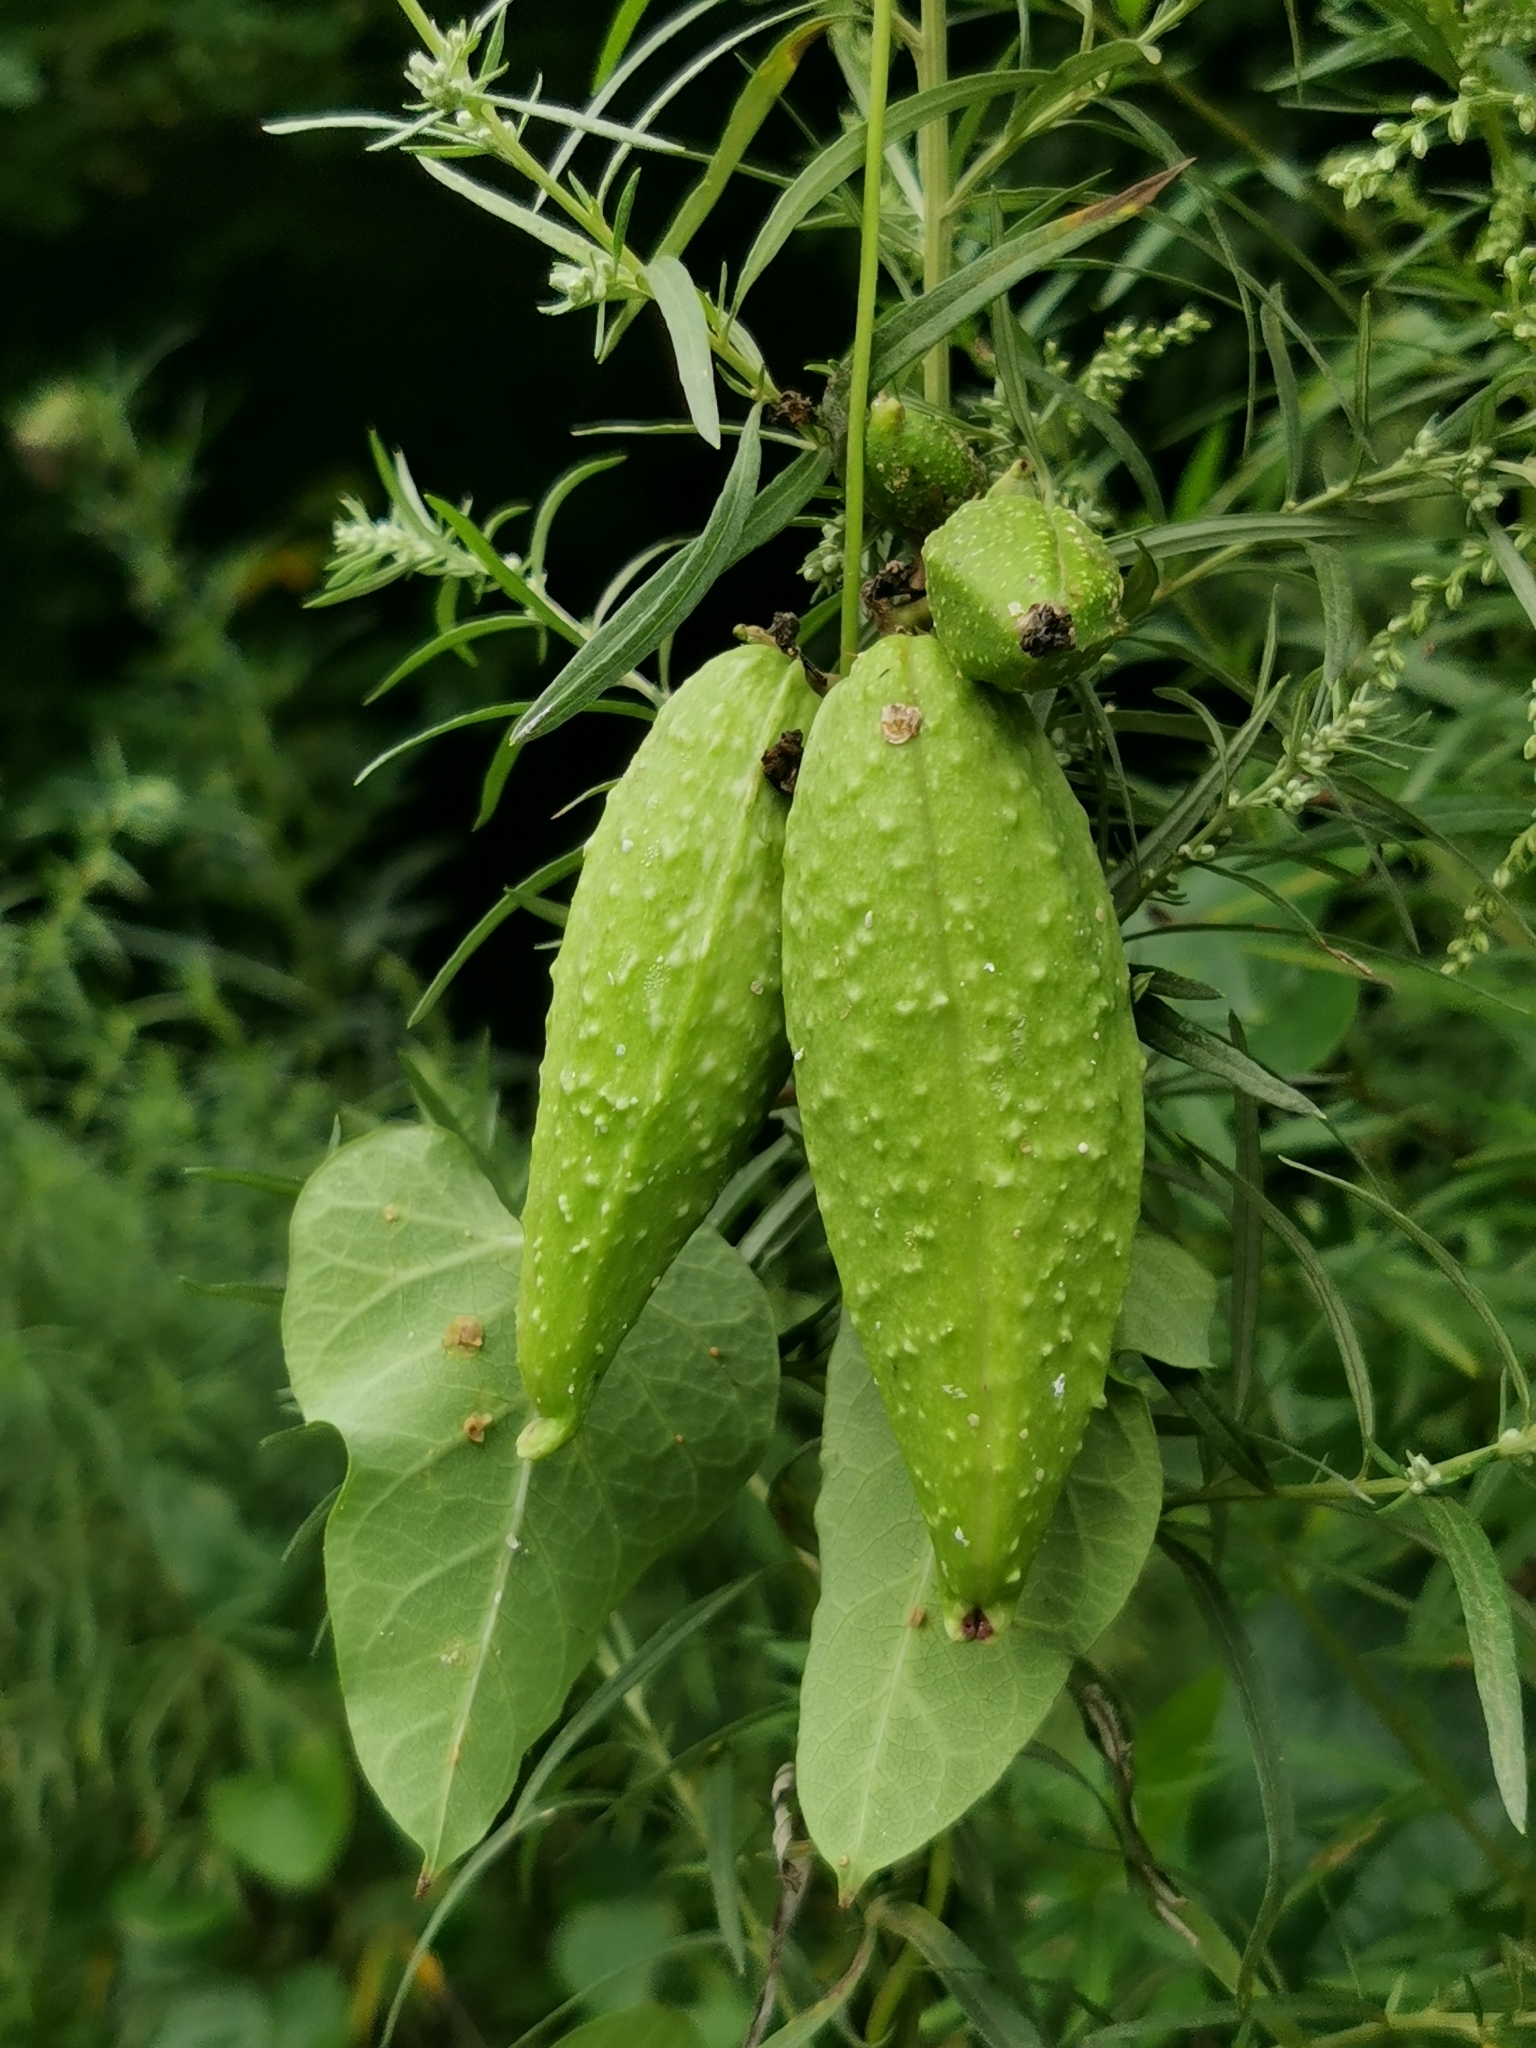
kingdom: Plantae
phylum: Tracheophyta
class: Magnoliopsida
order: Gentianales
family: Apocynaceae
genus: Cynanchum
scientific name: Cynanchum rostellatum
